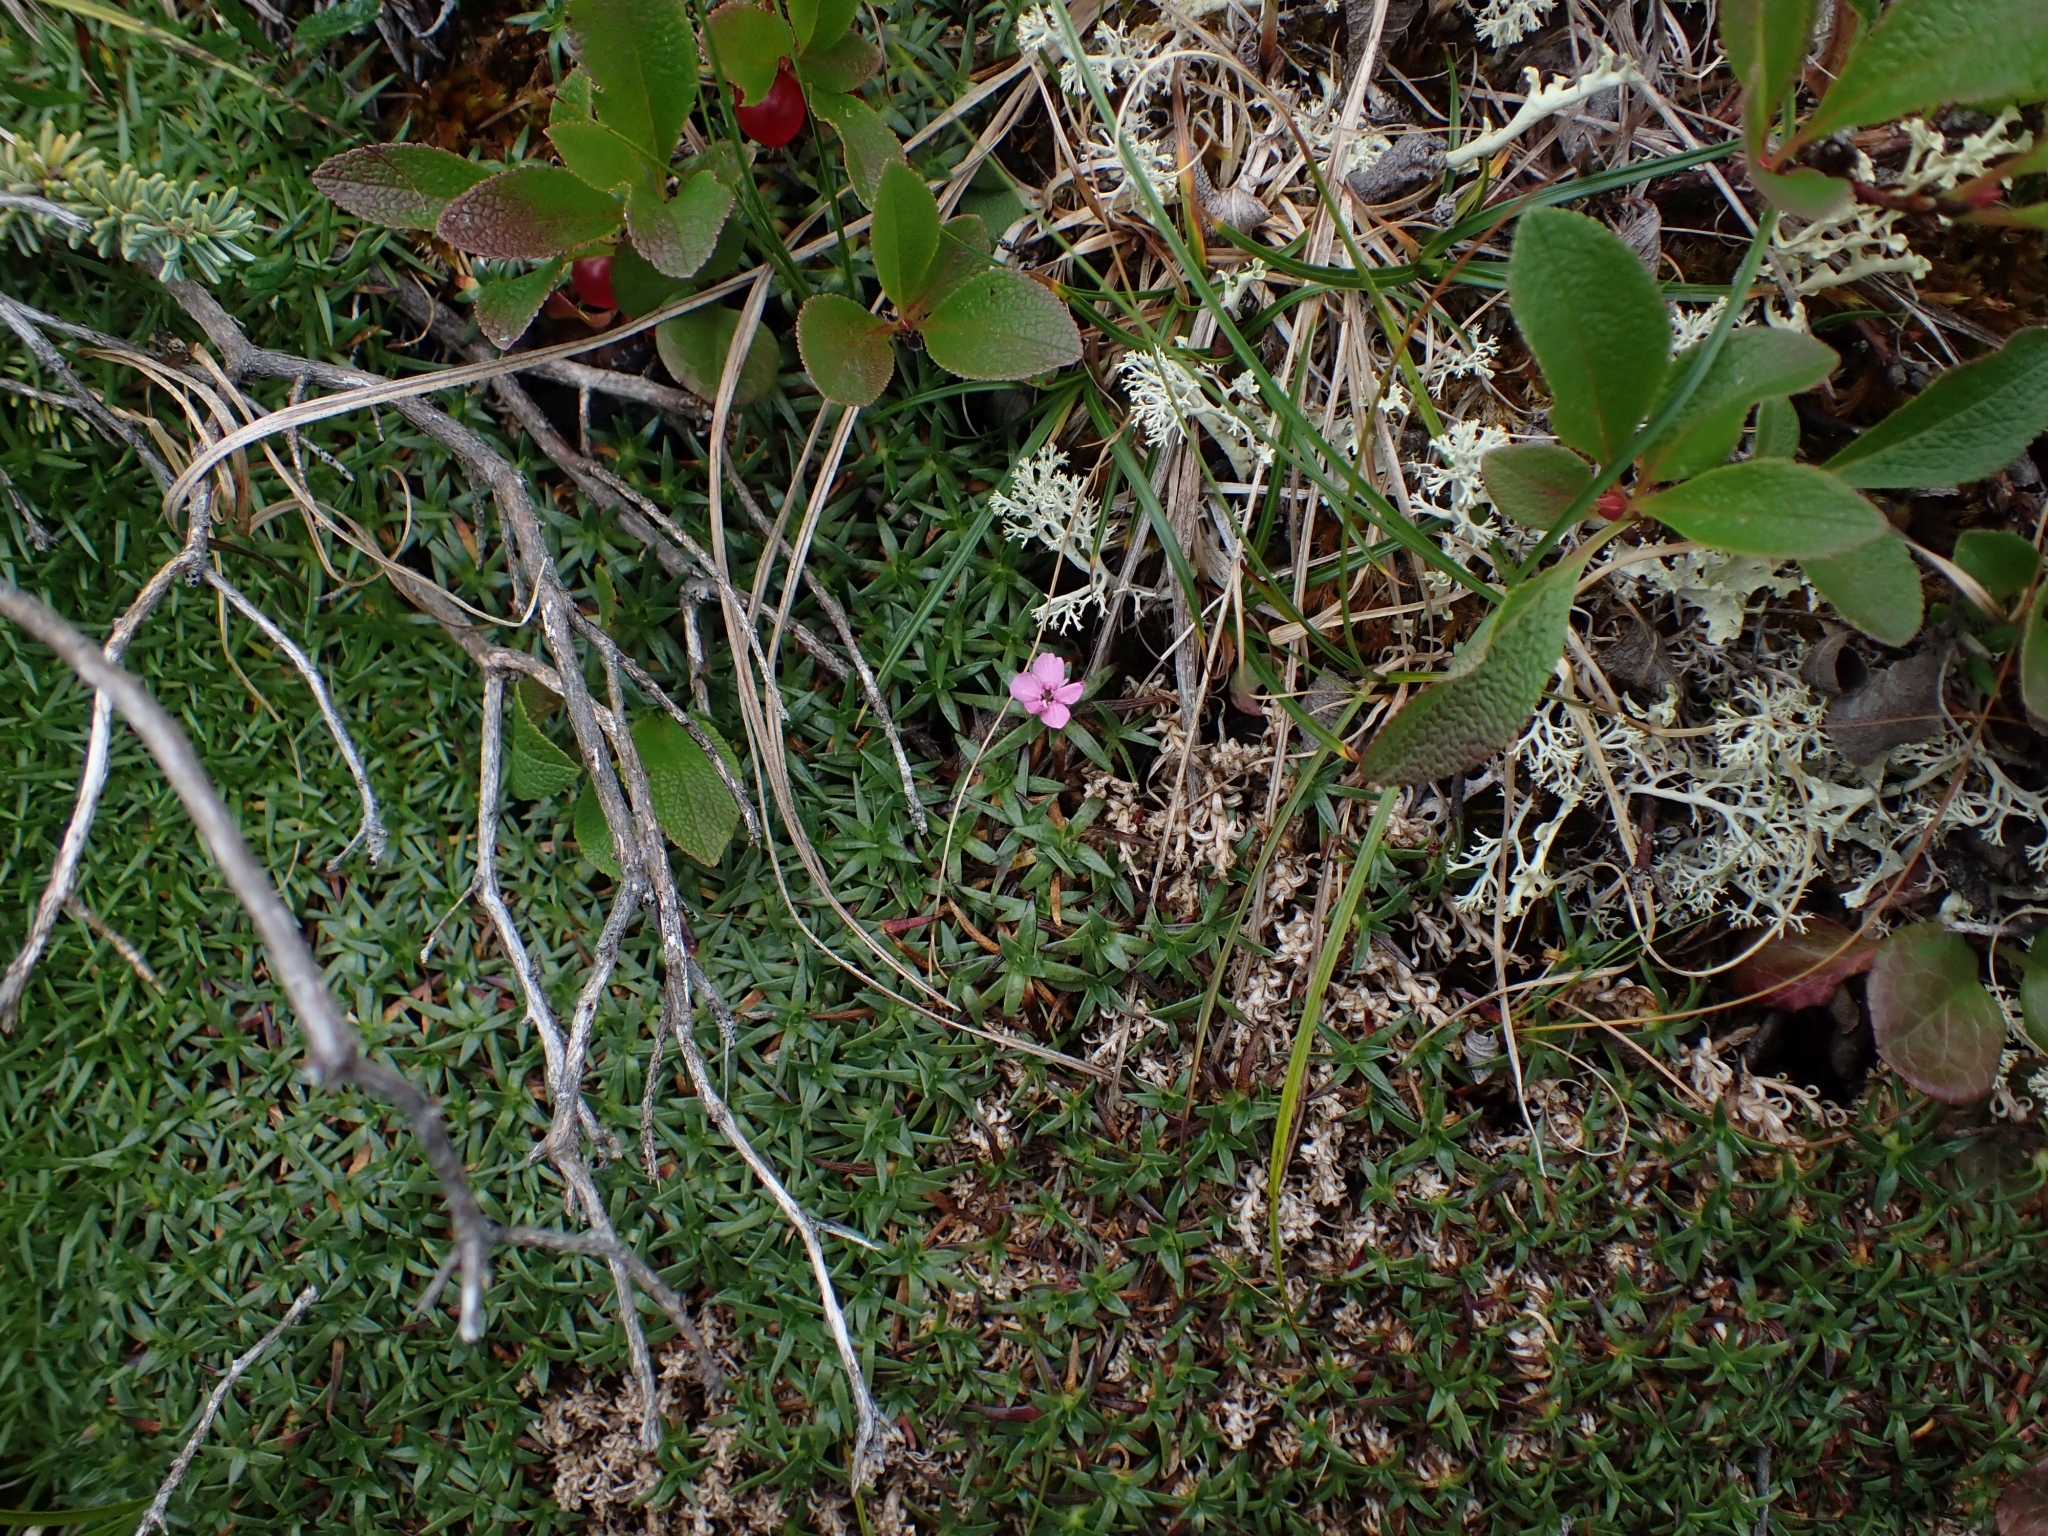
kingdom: Plantae
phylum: Tracheophyta
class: Magnoliopsida
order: Caryophyllales
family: Caryophyllaceae
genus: Silene
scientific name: Silene acaulis
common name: Moss campion
